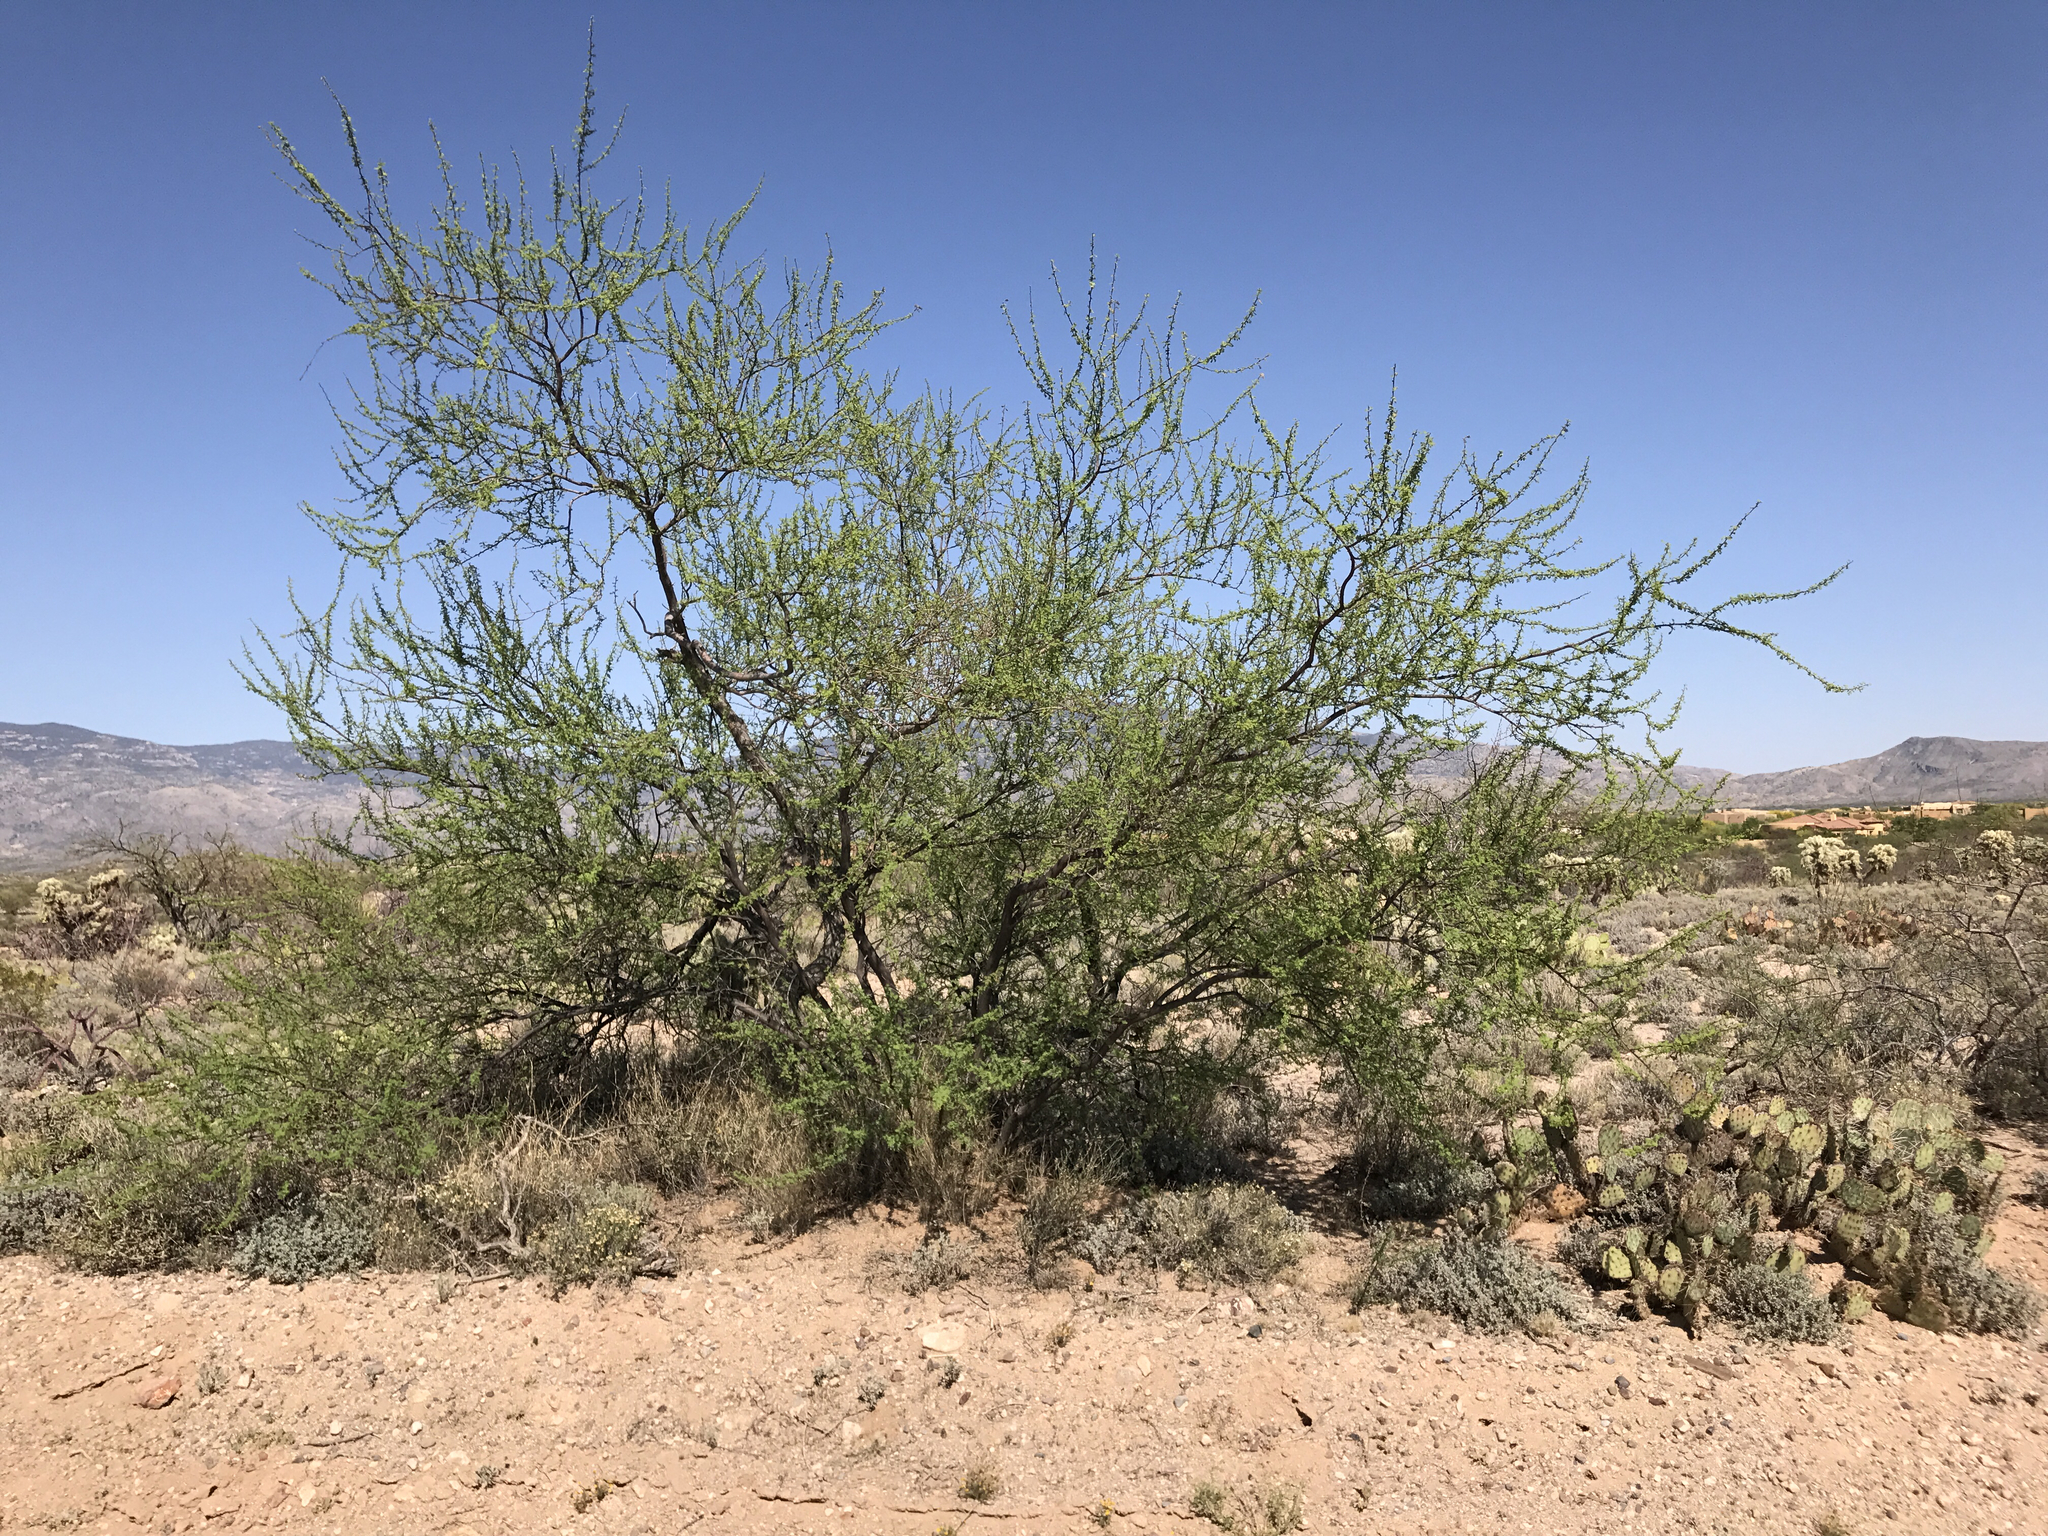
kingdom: Plantae
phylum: Tracheophyta
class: Magnoliopsida
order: Fabales
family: Fabaceae
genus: Vachellia
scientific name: Vachellia constricta
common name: Mescat acacia
